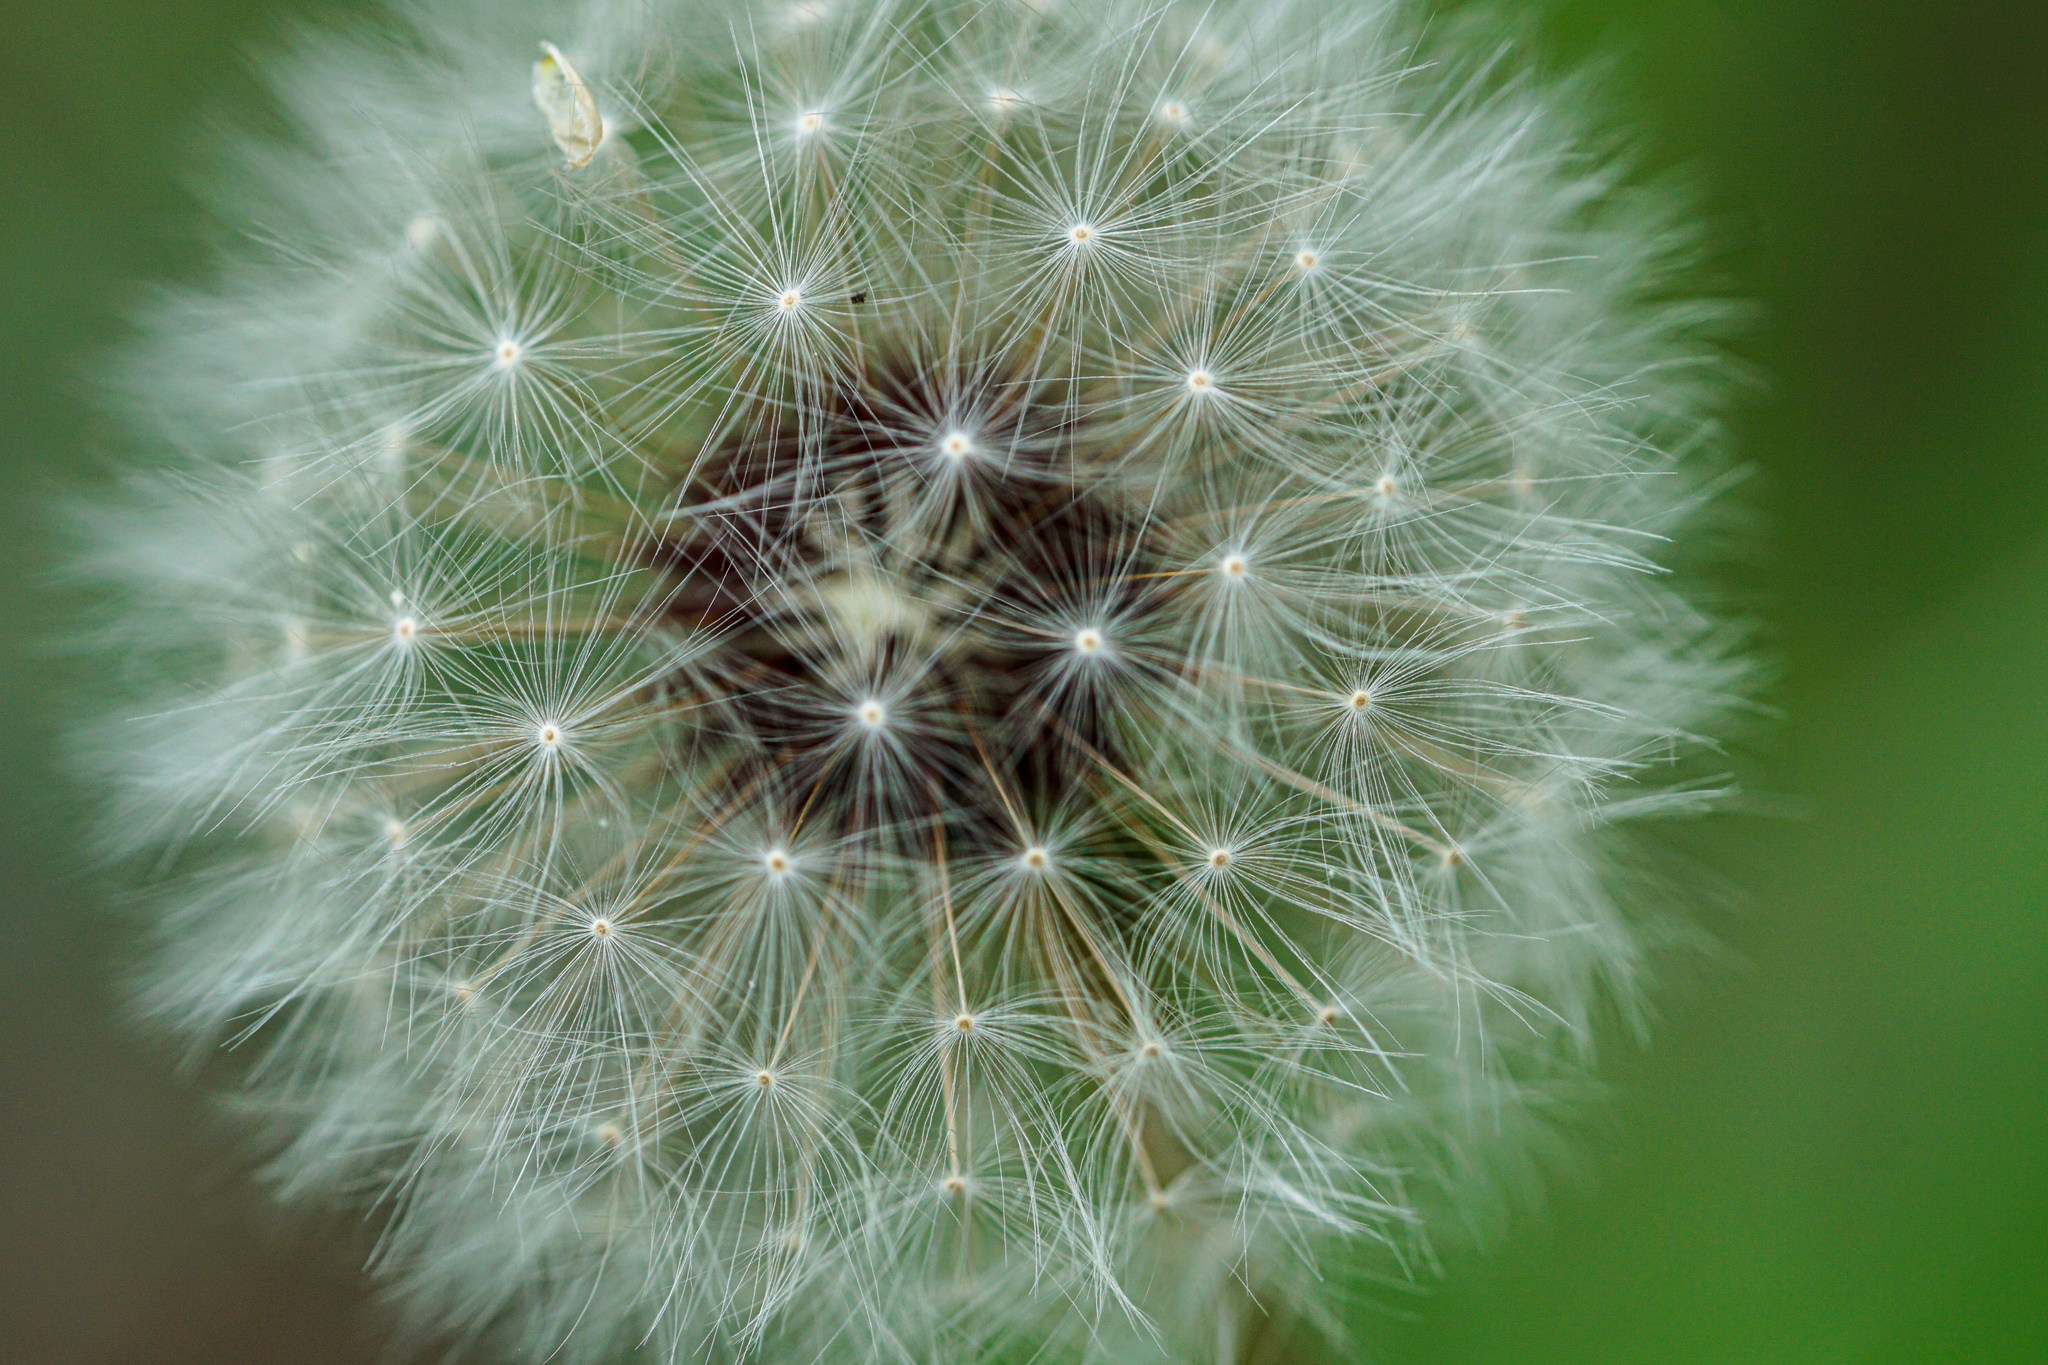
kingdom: Plantae
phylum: Tracheophyta
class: Magnoliopsida
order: Asterales
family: Asteraceae
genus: Taraxacum
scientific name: Taraxacum officinale
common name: Common dandelion
